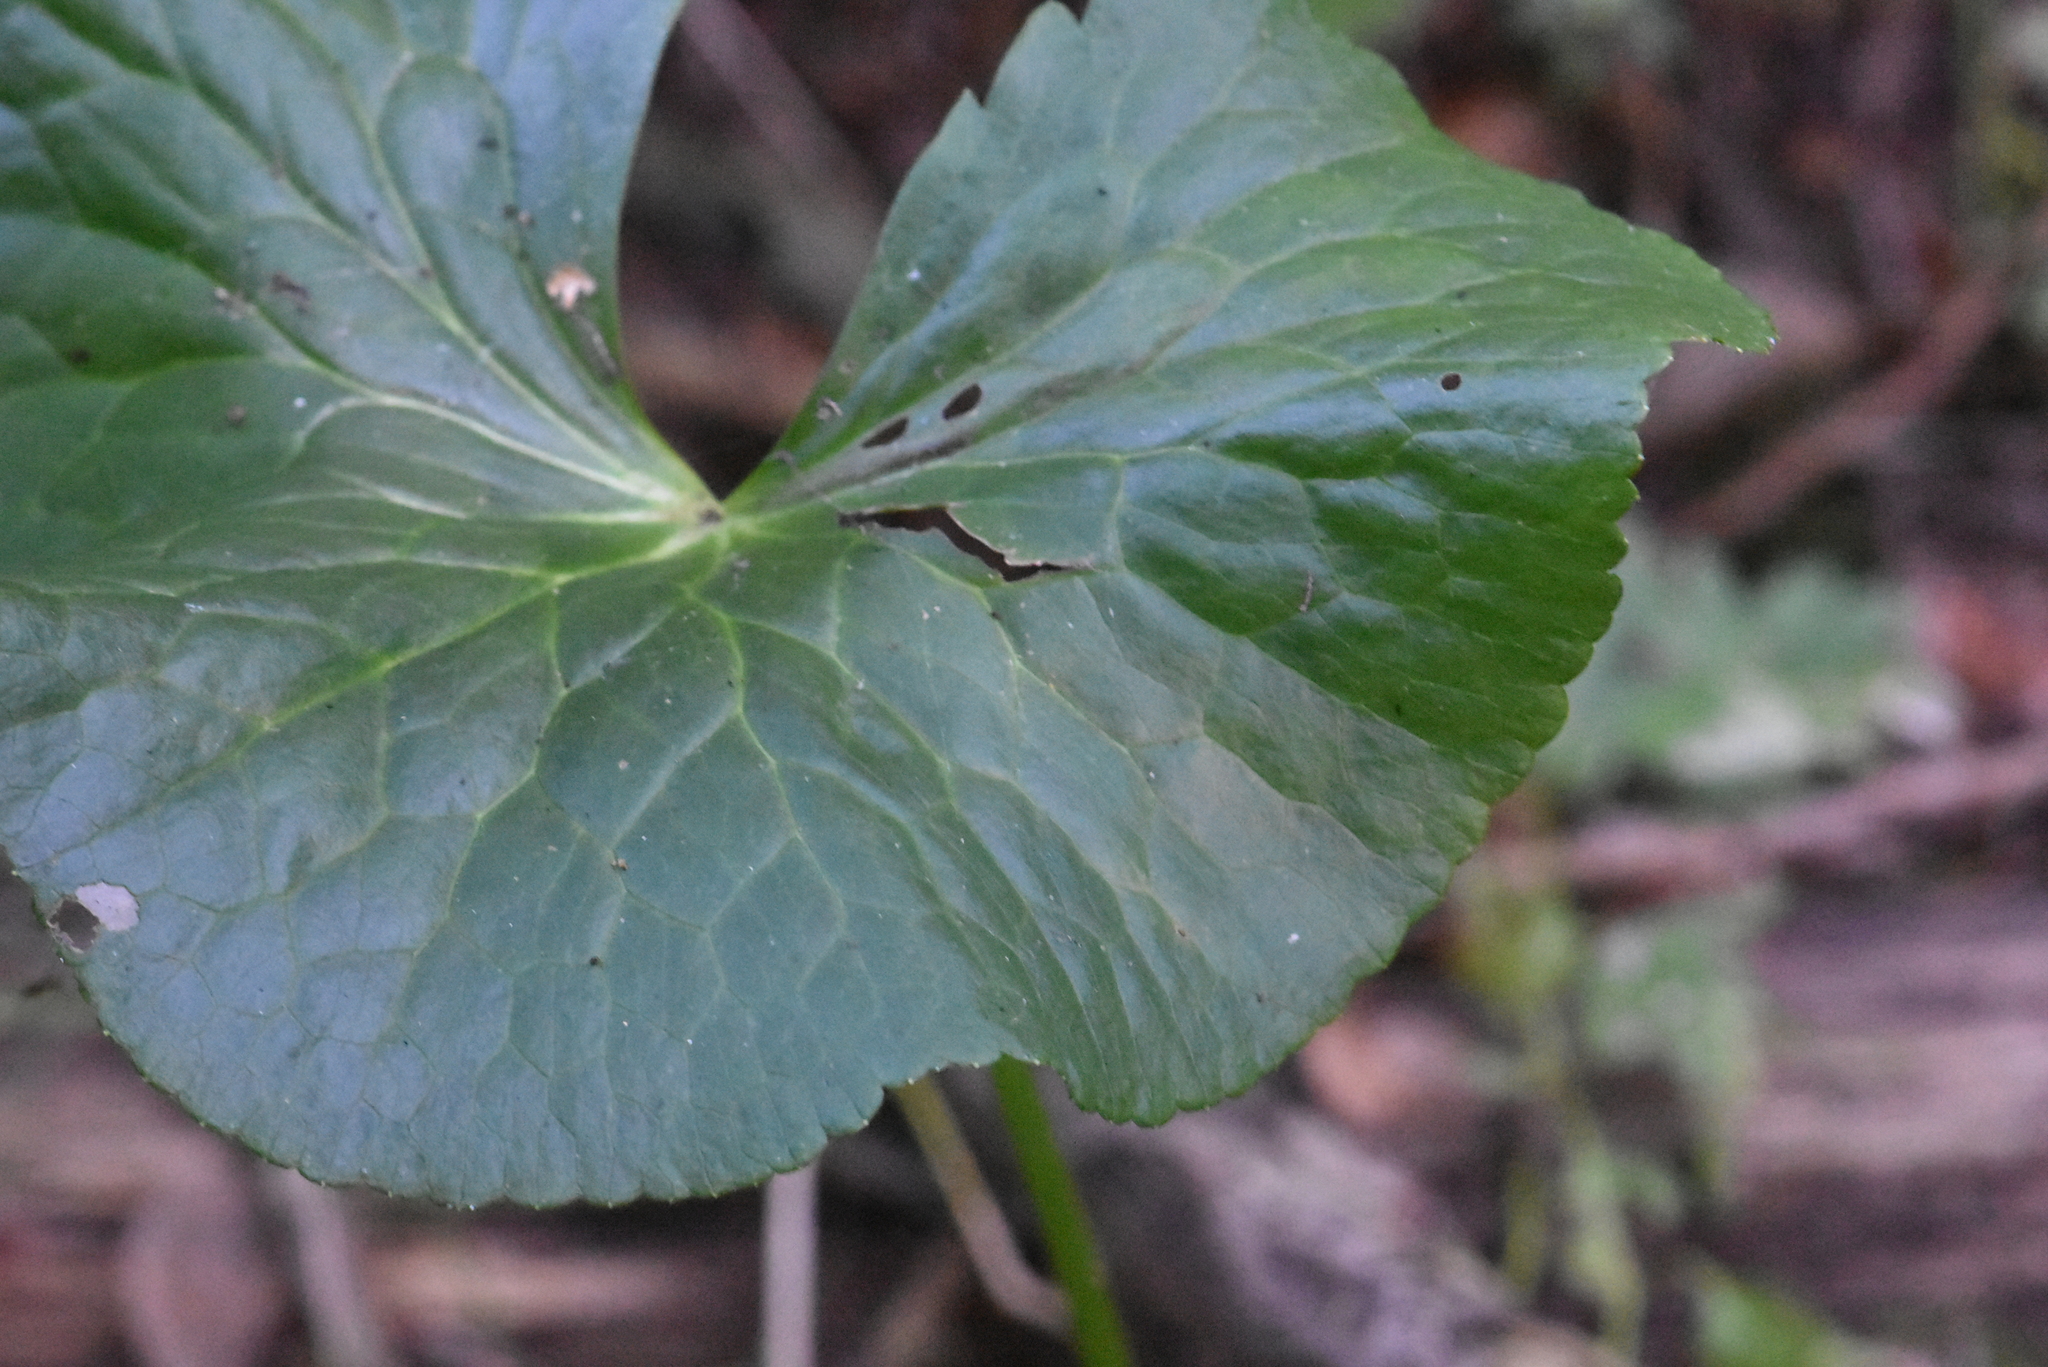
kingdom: Plantae
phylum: Tracheophyta
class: Magnoliopsida
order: Ranunculales
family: Ranunculaceae
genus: Caltha
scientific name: Caltha palustris
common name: Marsh marigold
